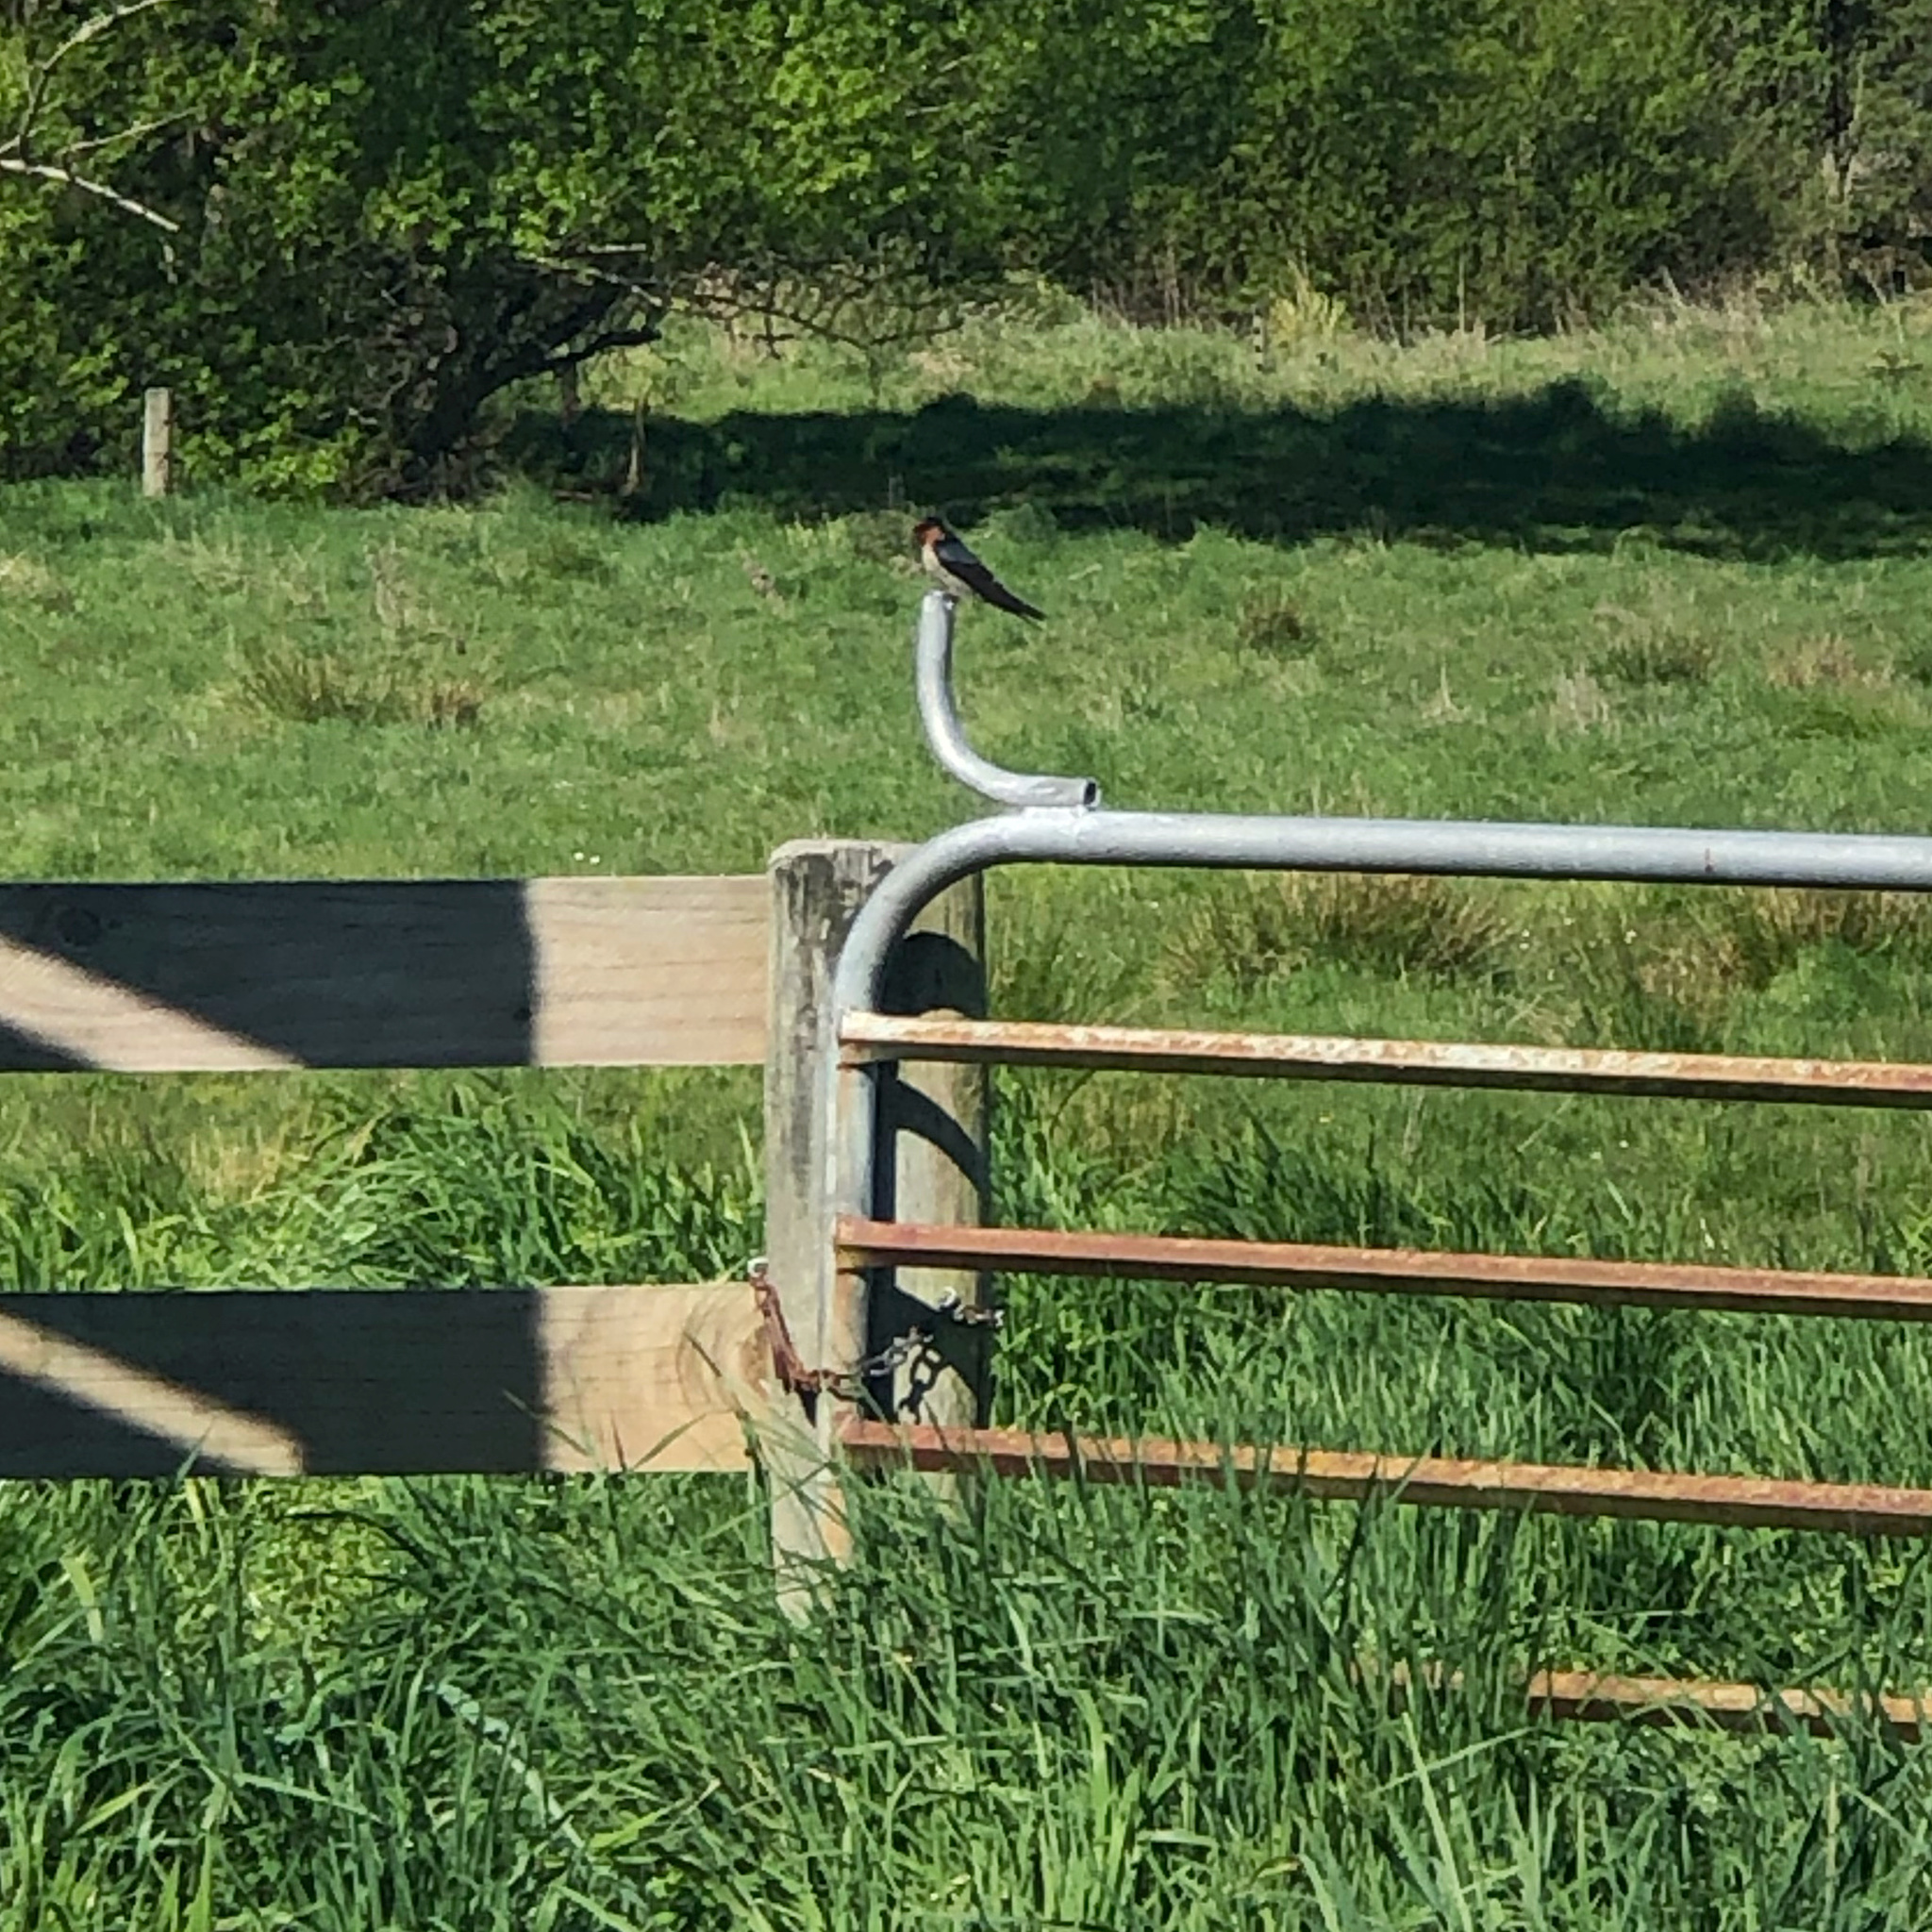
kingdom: Animalia
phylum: Chordata
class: Aves
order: Passeriformes
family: Hirundinidae
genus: Hirundo
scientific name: Hirundo neoxena
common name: Welcome swallow
